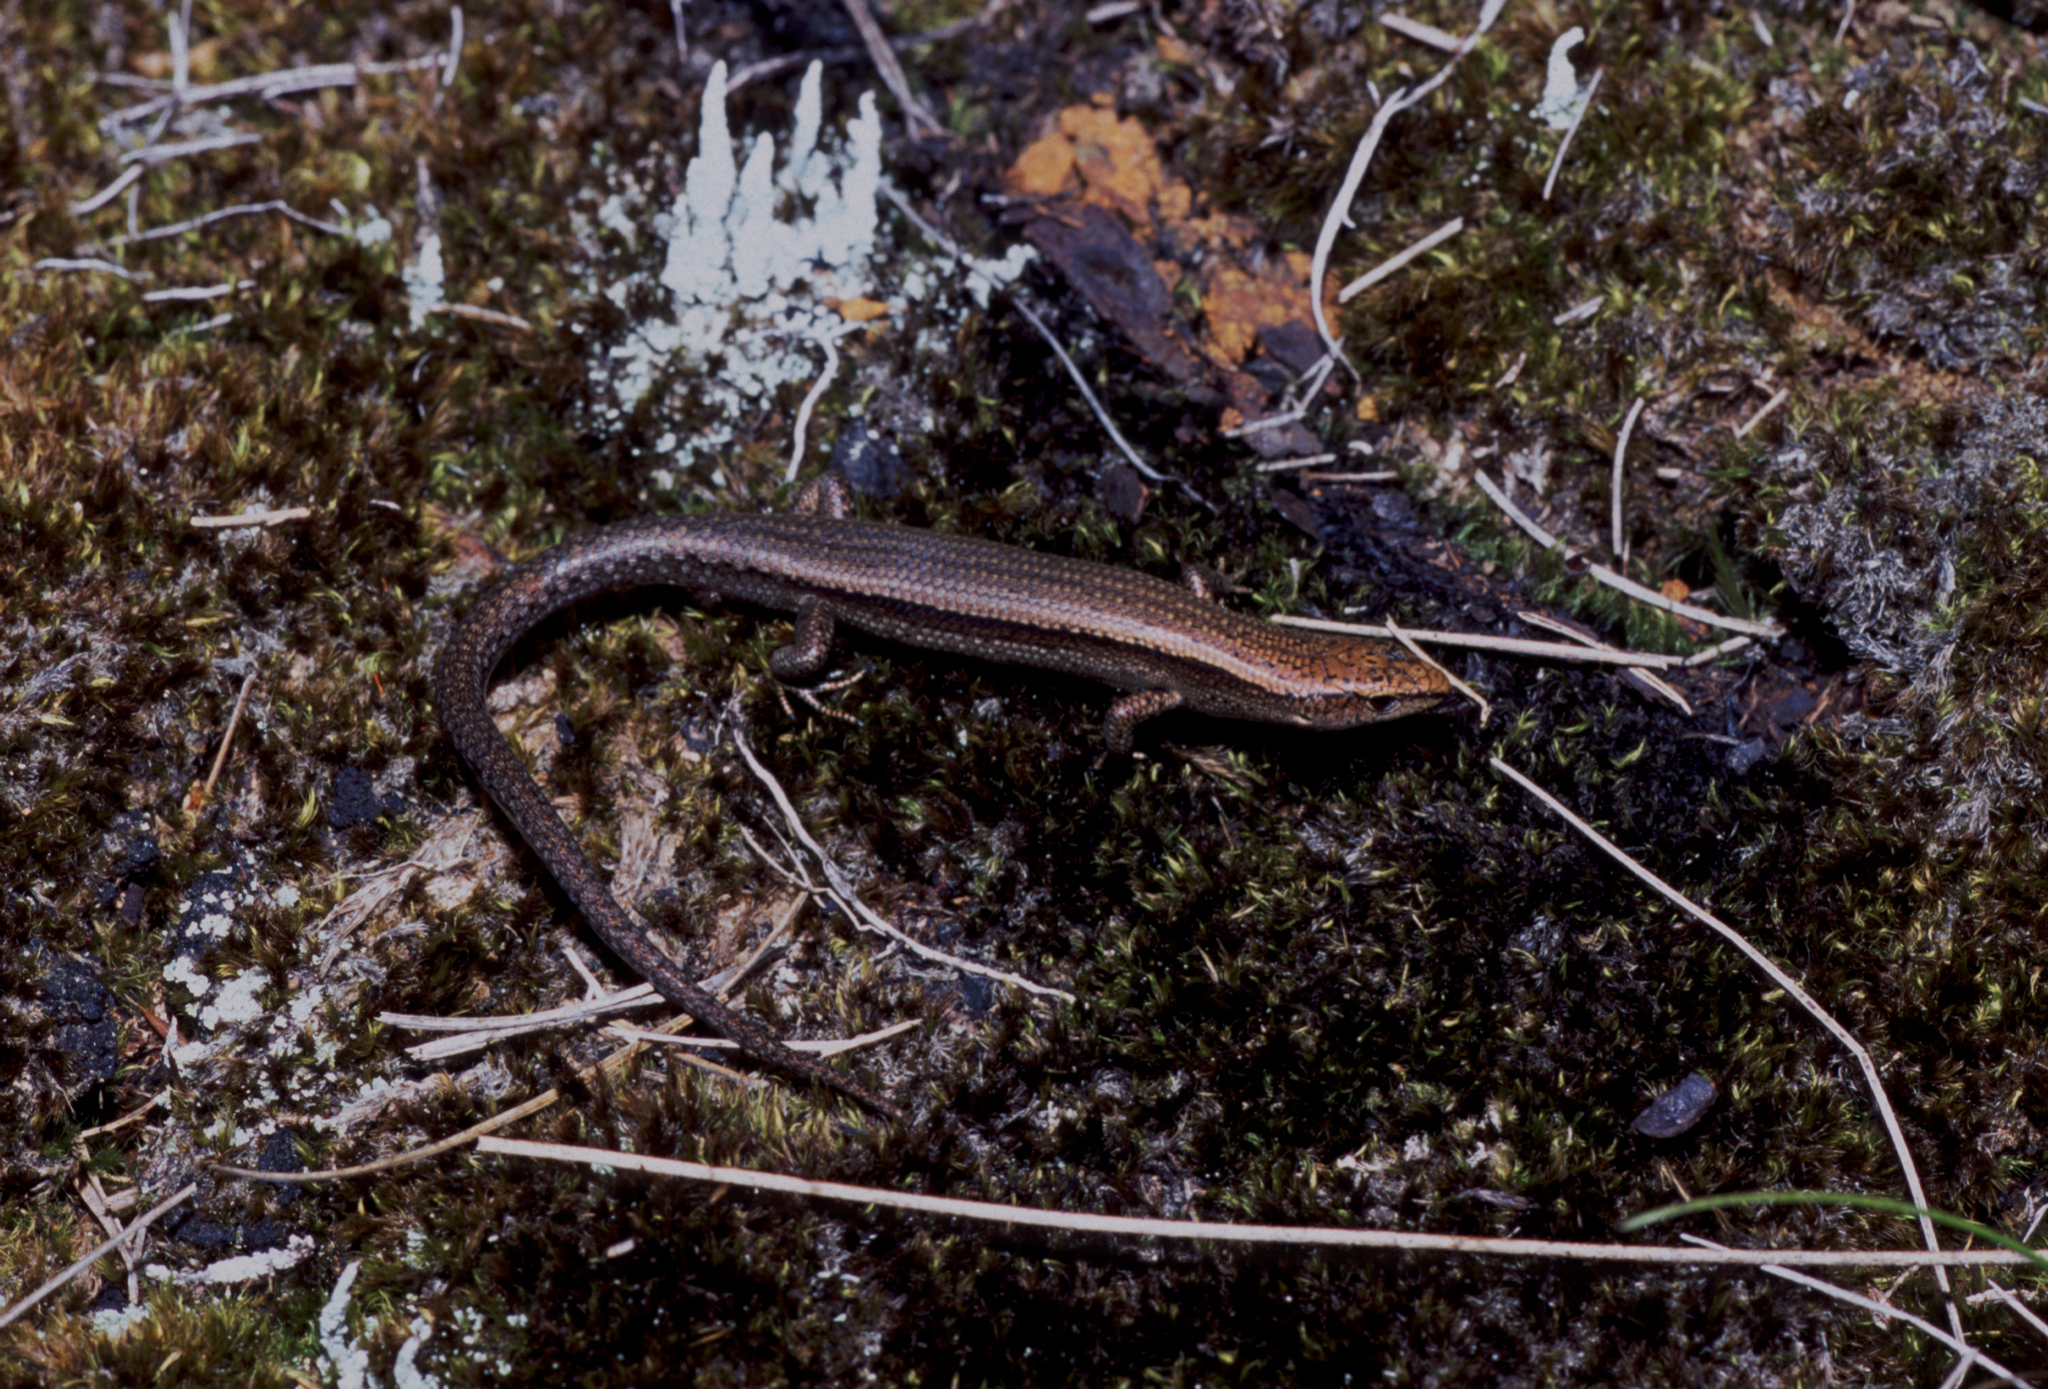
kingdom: Animalia
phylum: Chordata
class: Squamata
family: Scincidae
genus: Lampropholis
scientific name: Lampropholis delicata
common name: Plague skink
